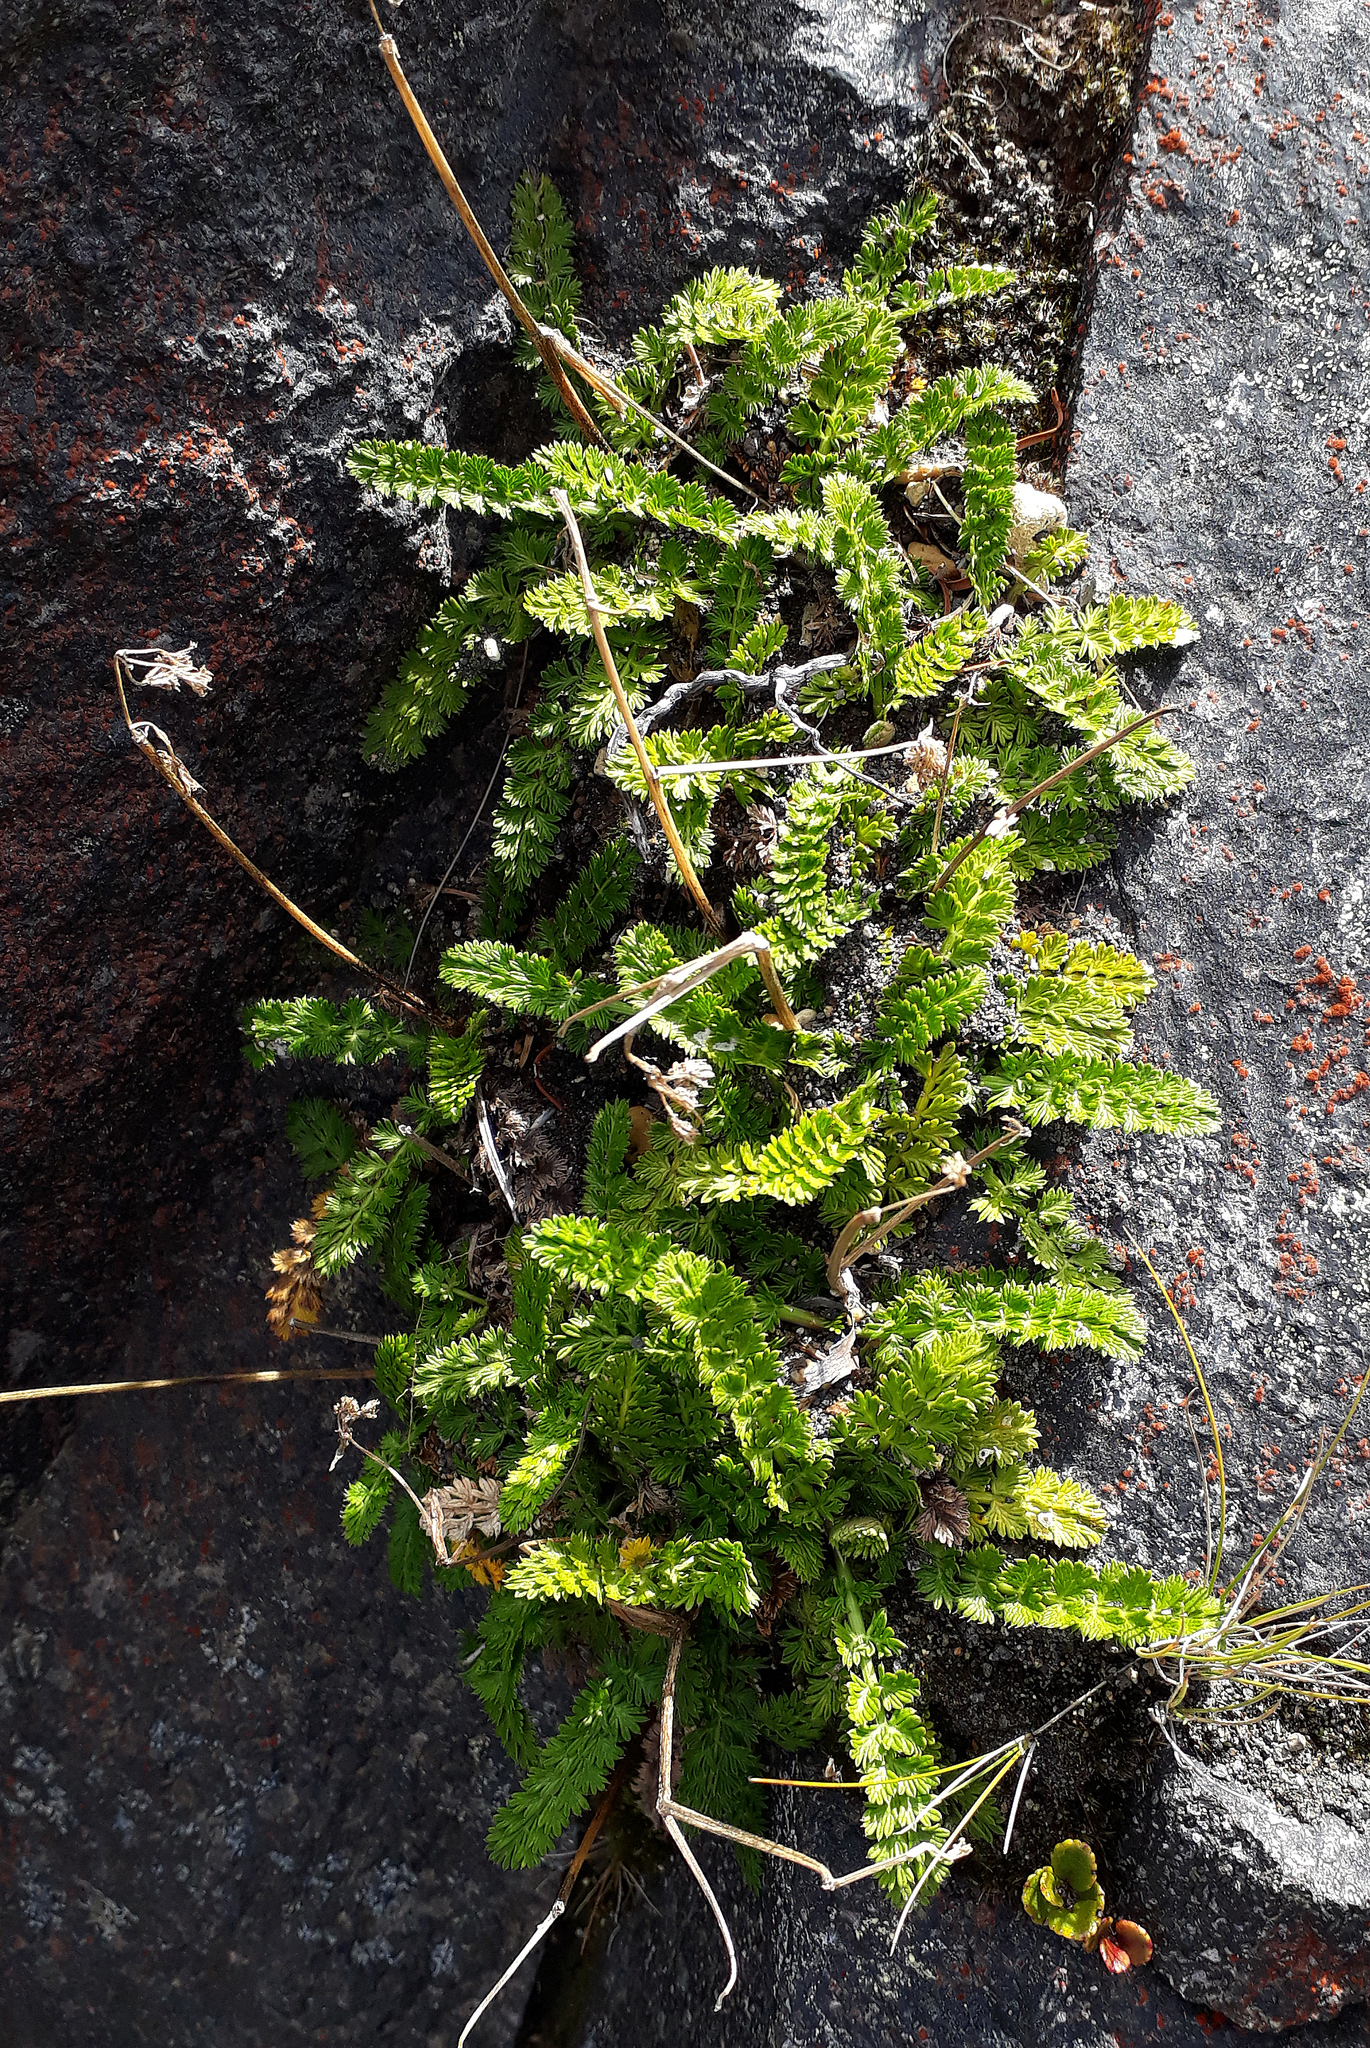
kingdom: Plantae
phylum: Tracheophyta
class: Magnoliopsida
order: Apiales
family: Apiaceae
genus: Anisotome
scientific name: Anisotome aromatica
